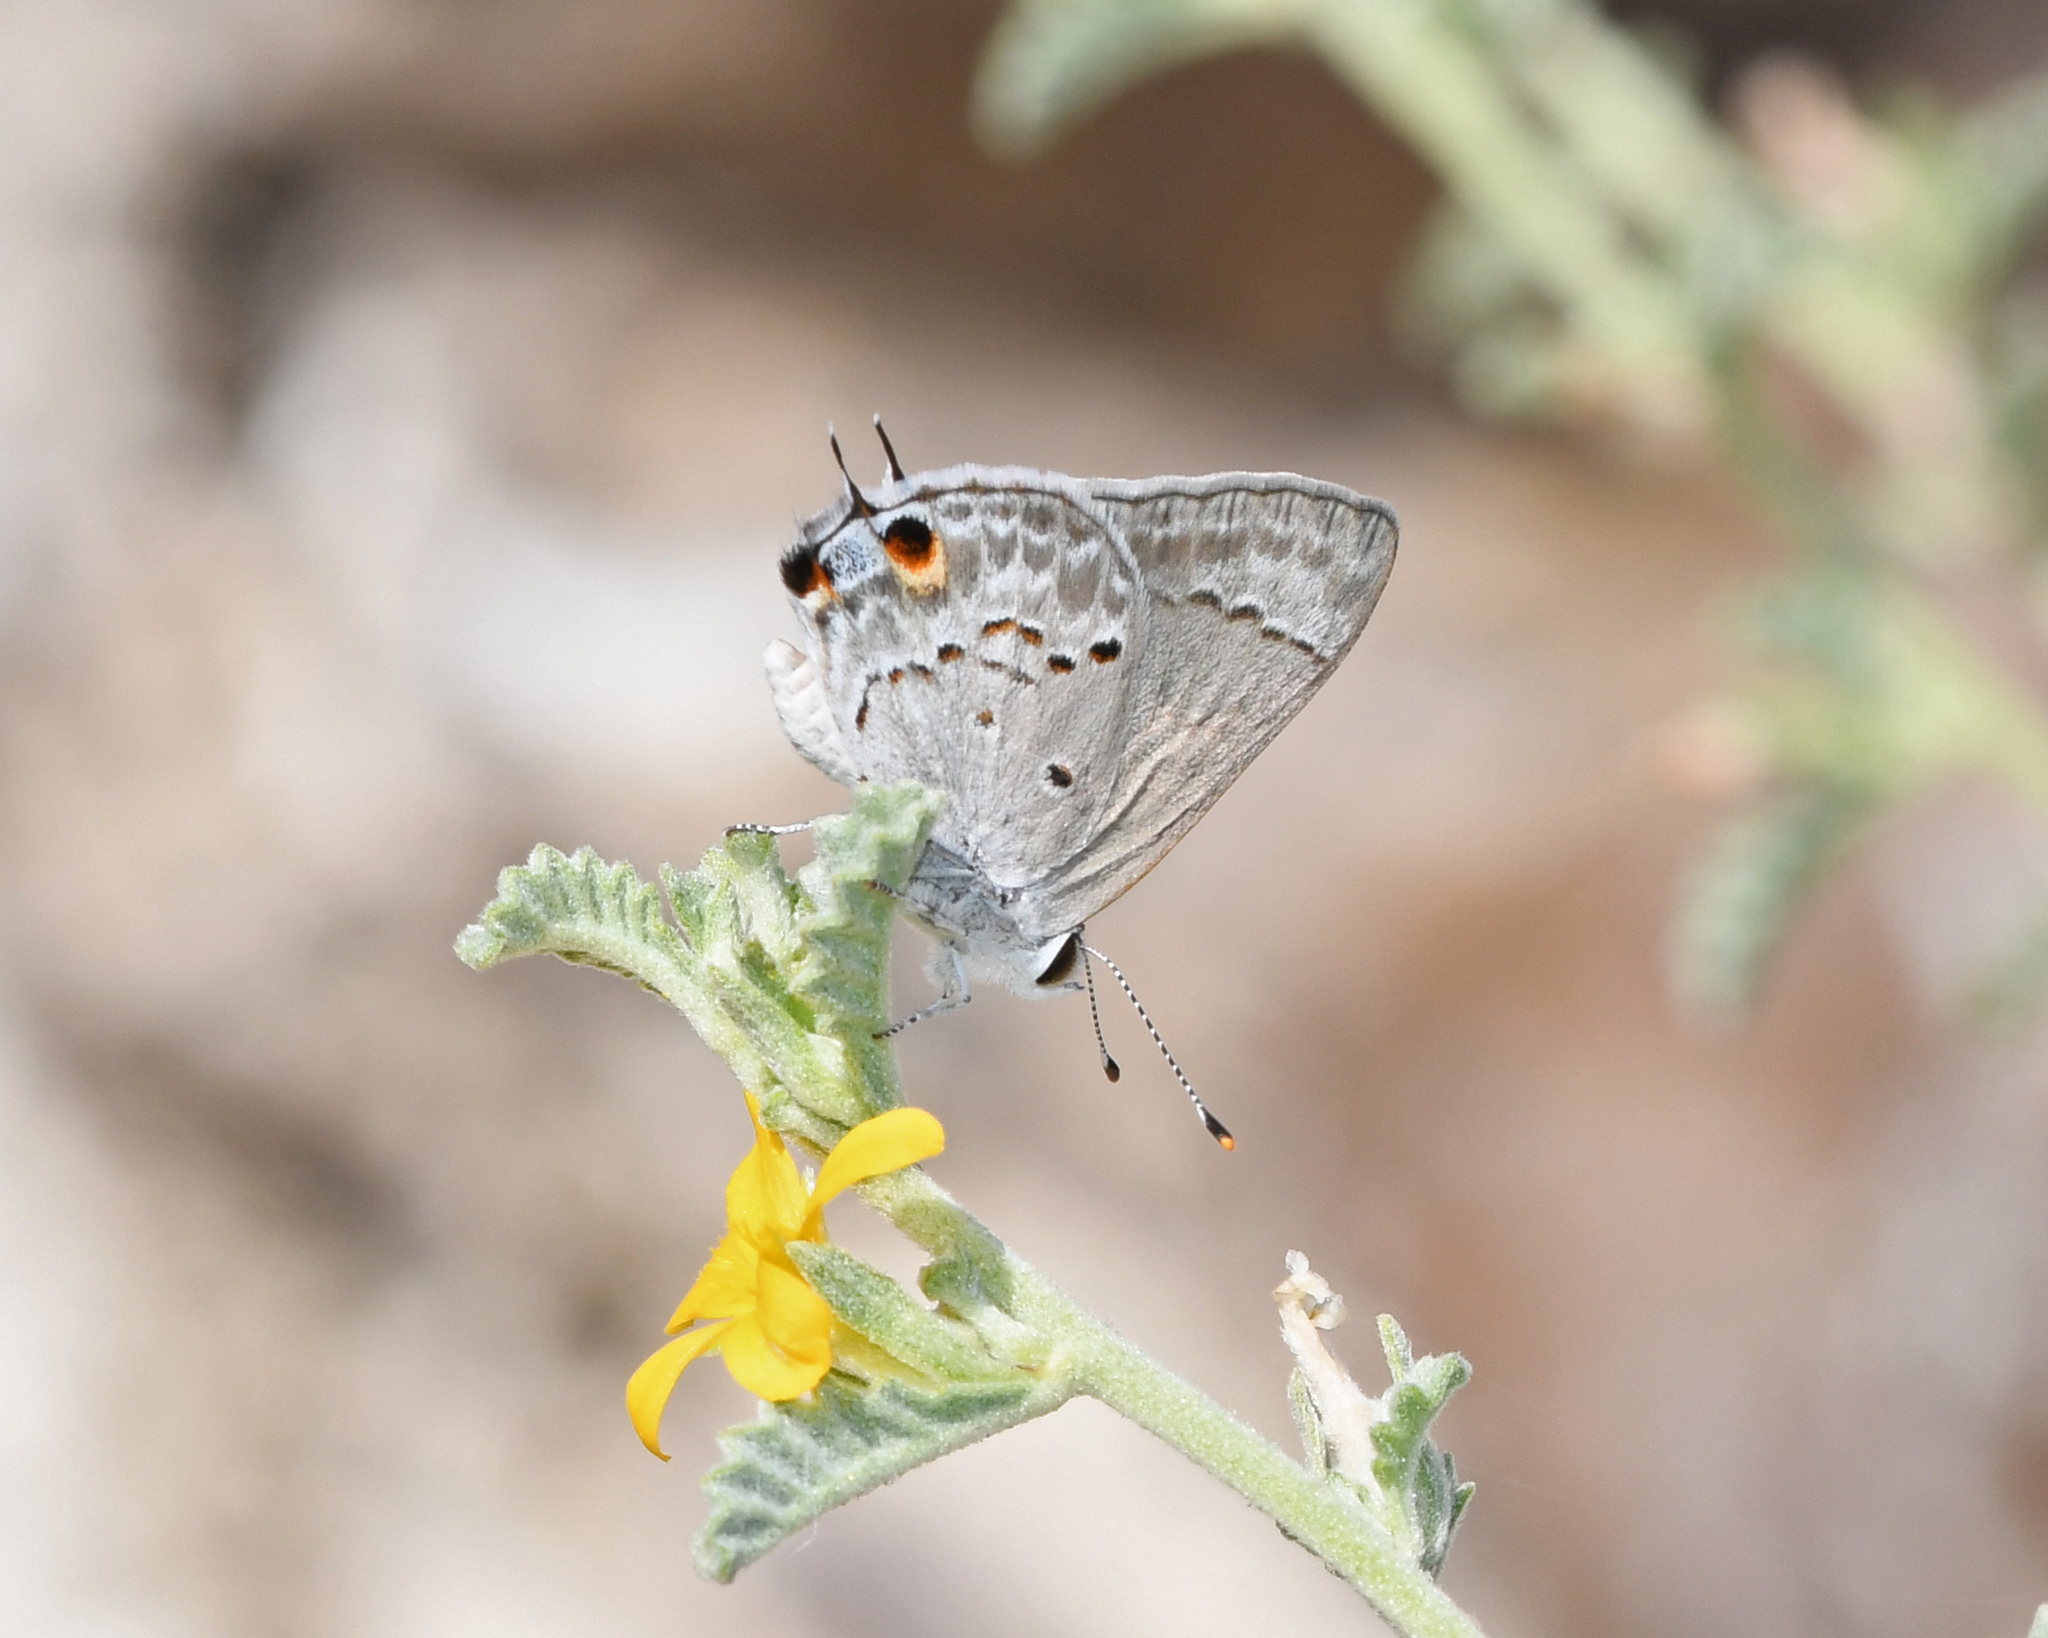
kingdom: Animalia
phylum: Arthropoda
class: Insecta
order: Lepidoptera
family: Lycaenidae
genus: Callicista
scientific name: Callicista columella
